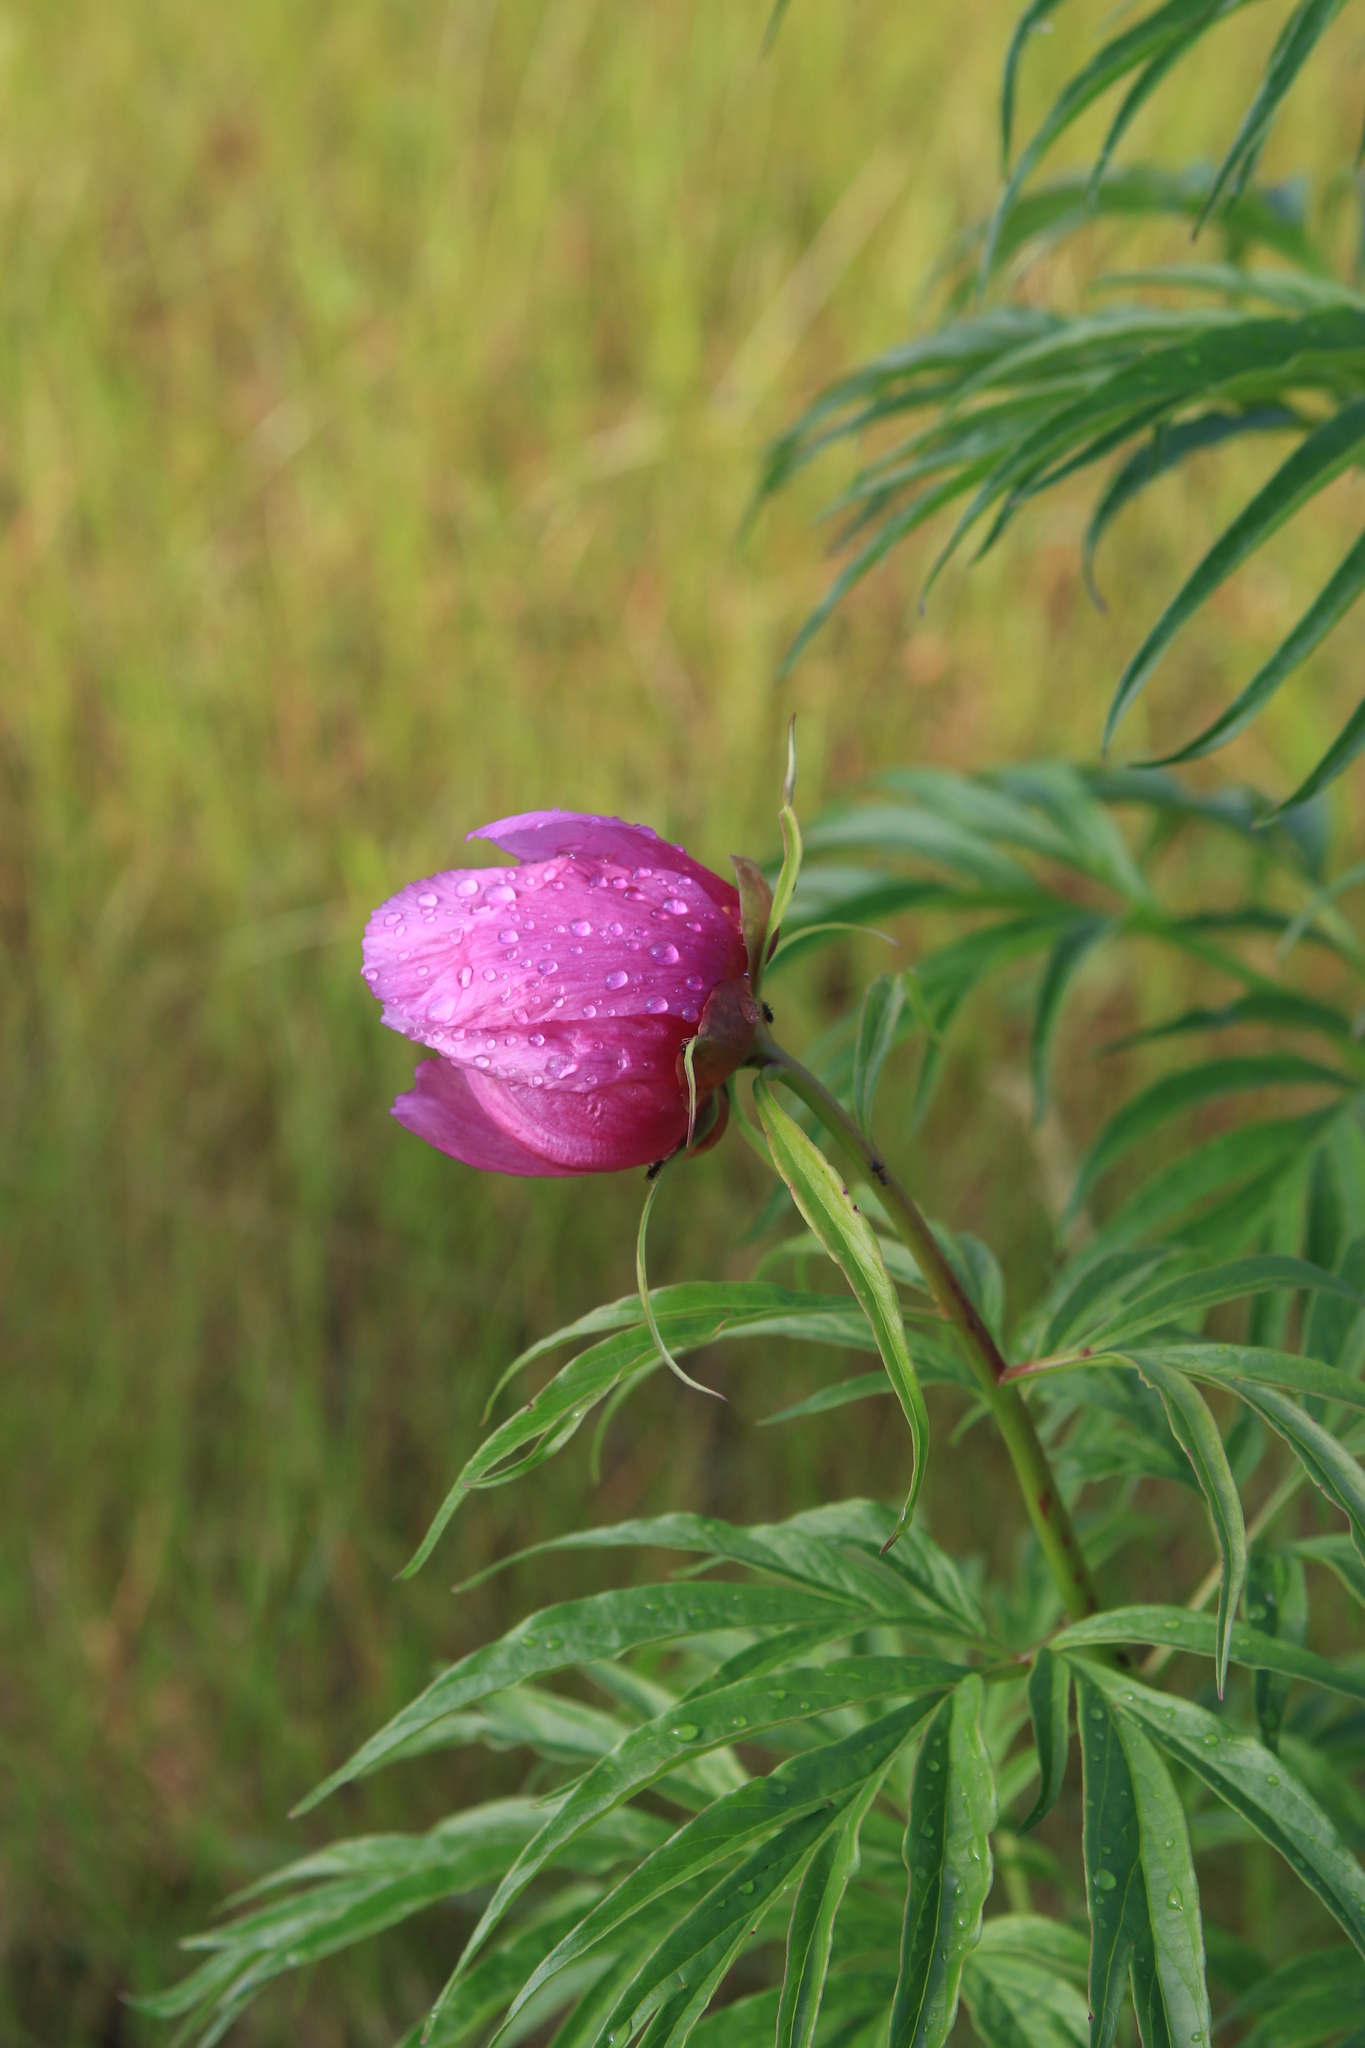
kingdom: Plantae
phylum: Tracheophyta
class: Magnoliopsida
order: Saxifragales
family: Paeoniaceae
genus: Paeonia
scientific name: Paeonia anomala
